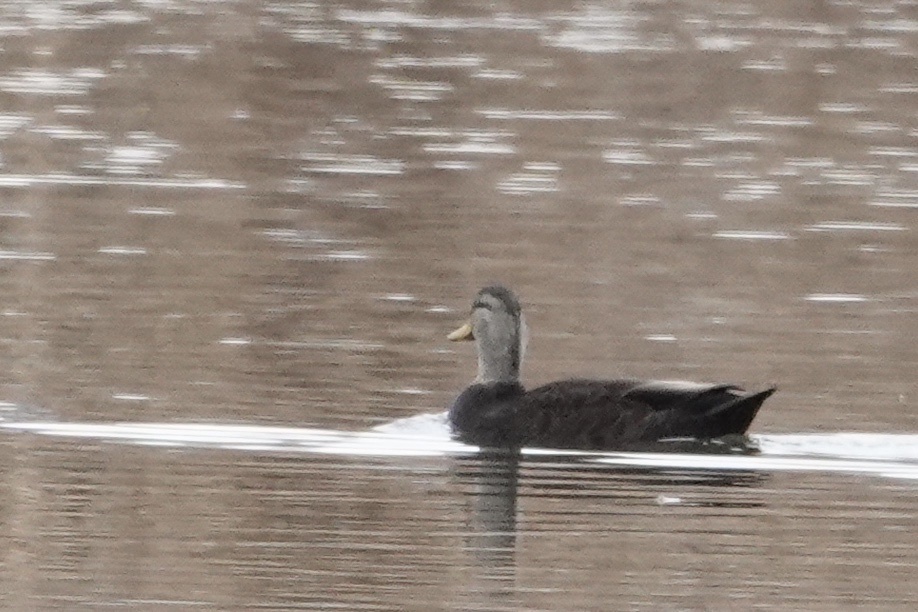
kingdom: Animalia
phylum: Chordata
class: Aves
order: Anseriformes
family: Anatidae
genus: Anas
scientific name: Anas rubripes
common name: American black duck
